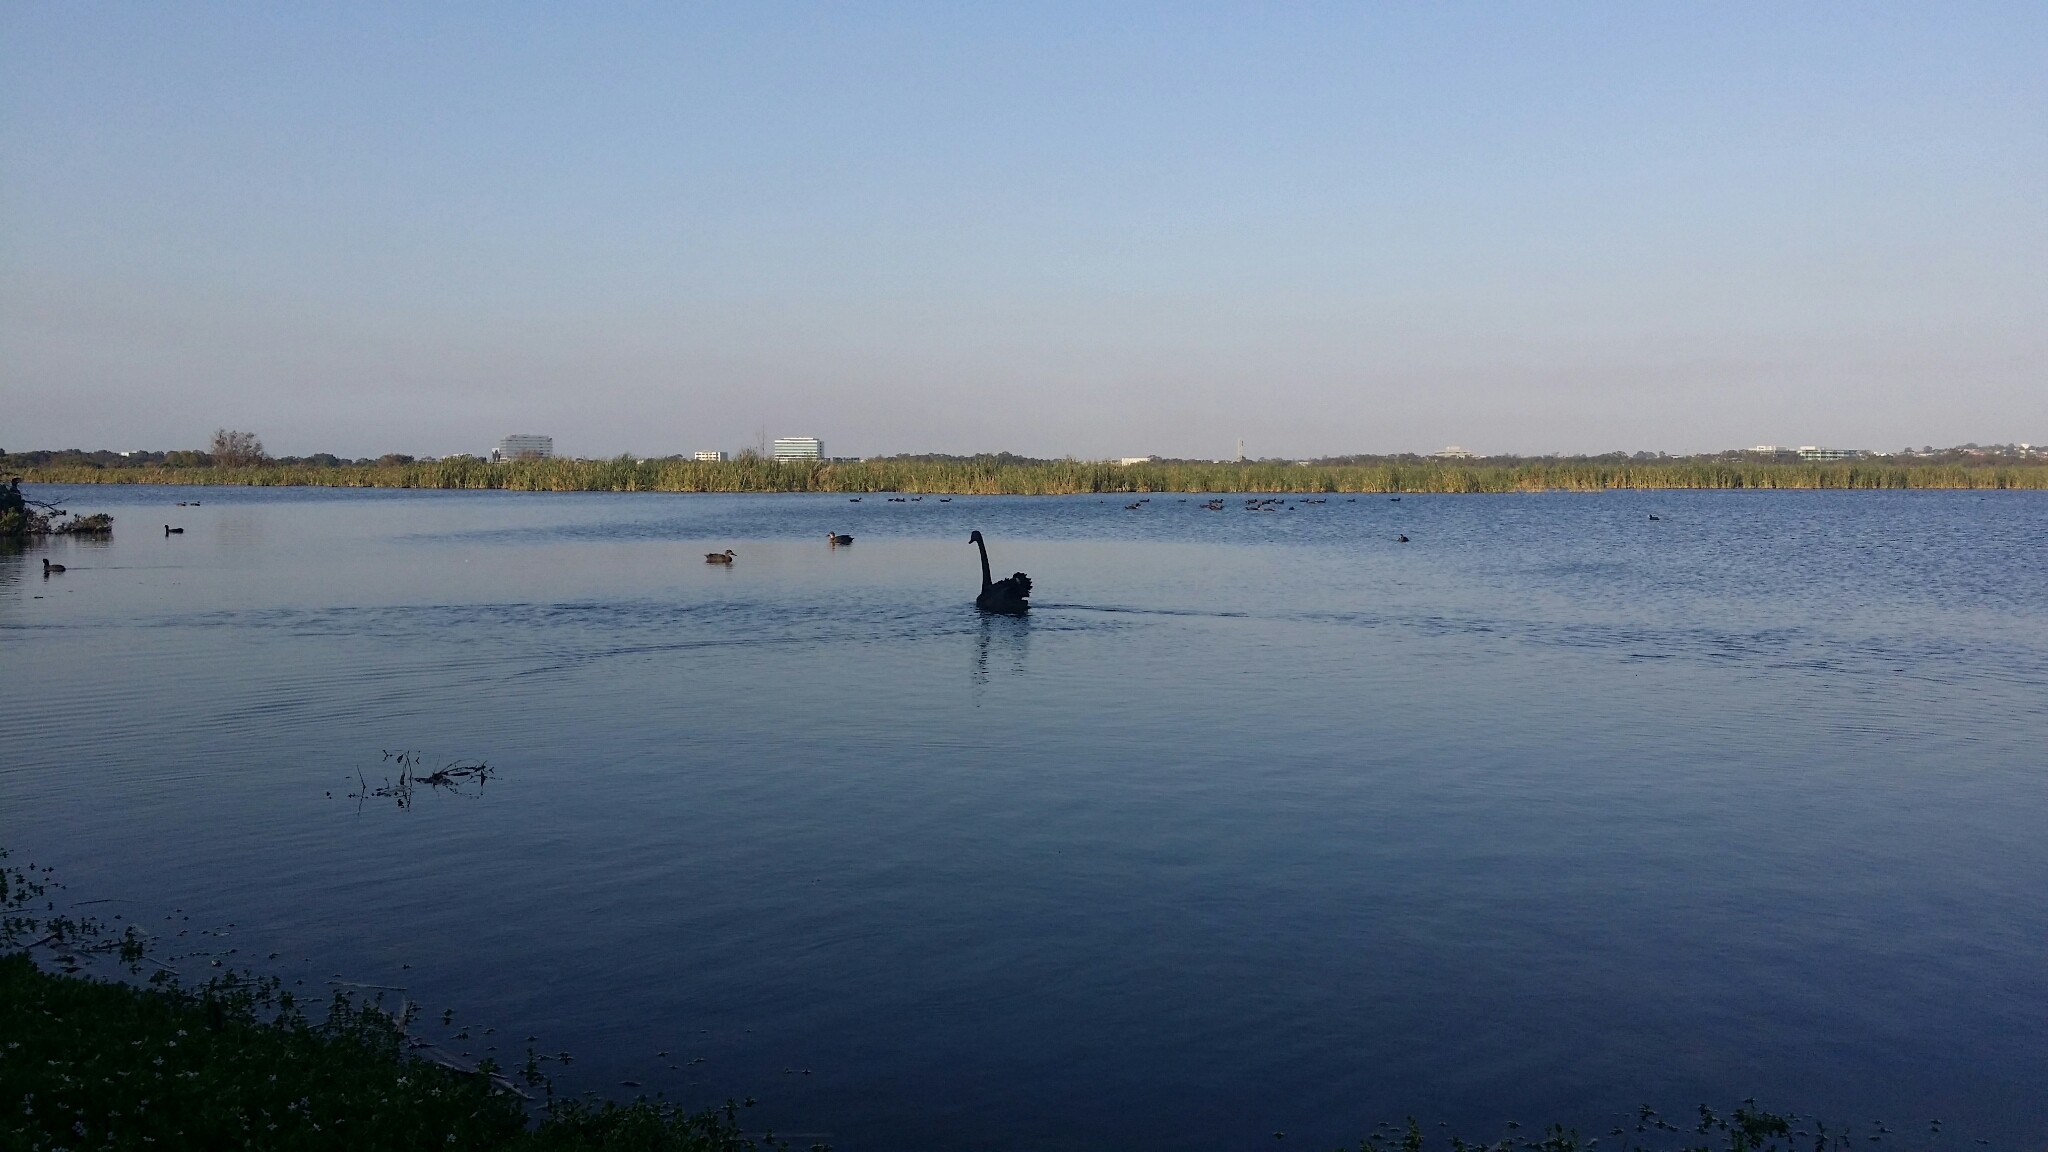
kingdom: Animalia
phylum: Chordata
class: Aves
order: Anseriformes
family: Anatidae
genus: Cygnus
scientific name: Cygnus atratus
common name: Black swan
